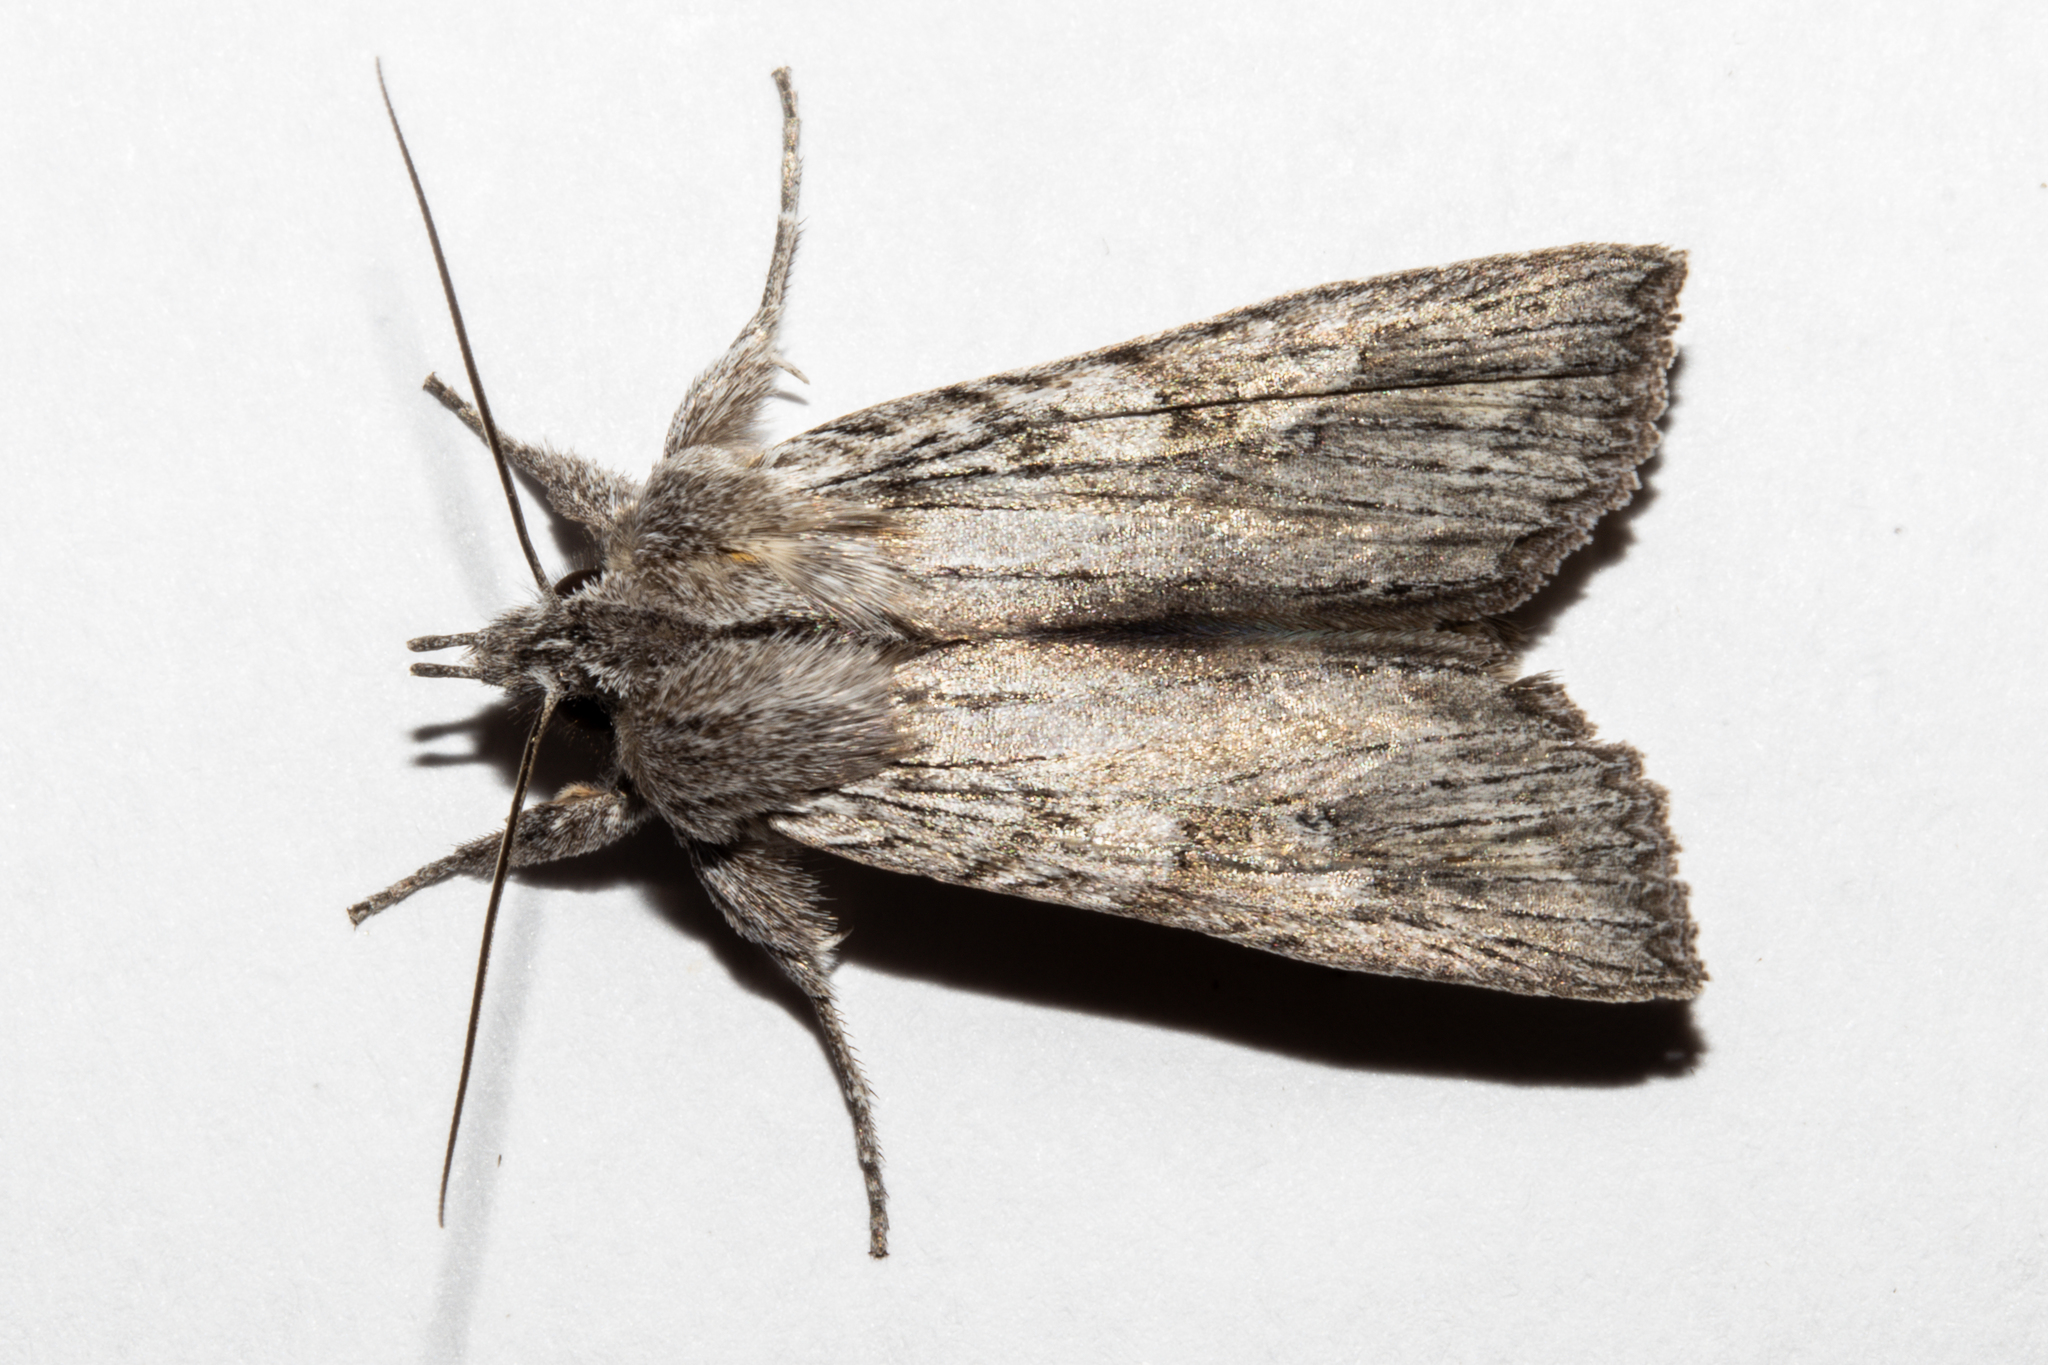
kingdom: Animalia
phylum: Arthropoda
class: Insecta
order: Lepidoptera
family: Noctuidae
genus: Physetica
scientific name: Physetica phricias
